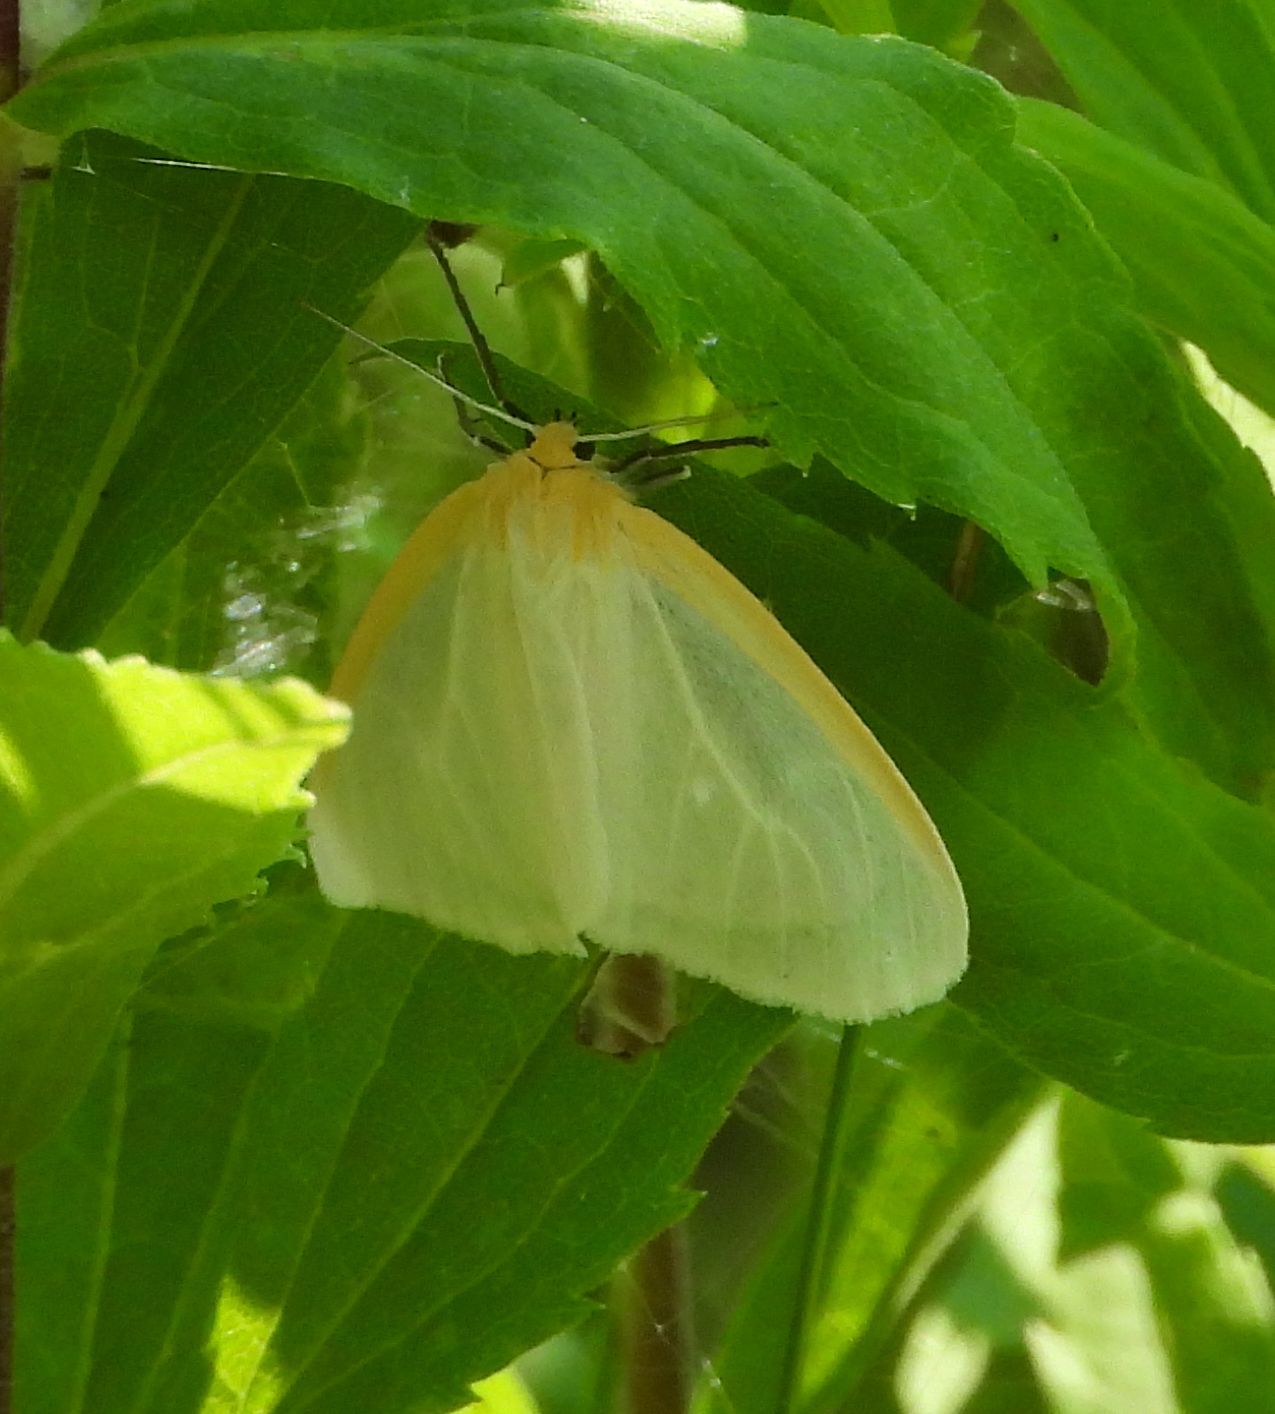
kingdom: Animalia
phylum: Arthropoda
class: Insecta
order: Lepidoptera
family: Erebidae
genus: Cycnia
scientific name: Cycnia tenera
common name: Delicate cycnia moth
